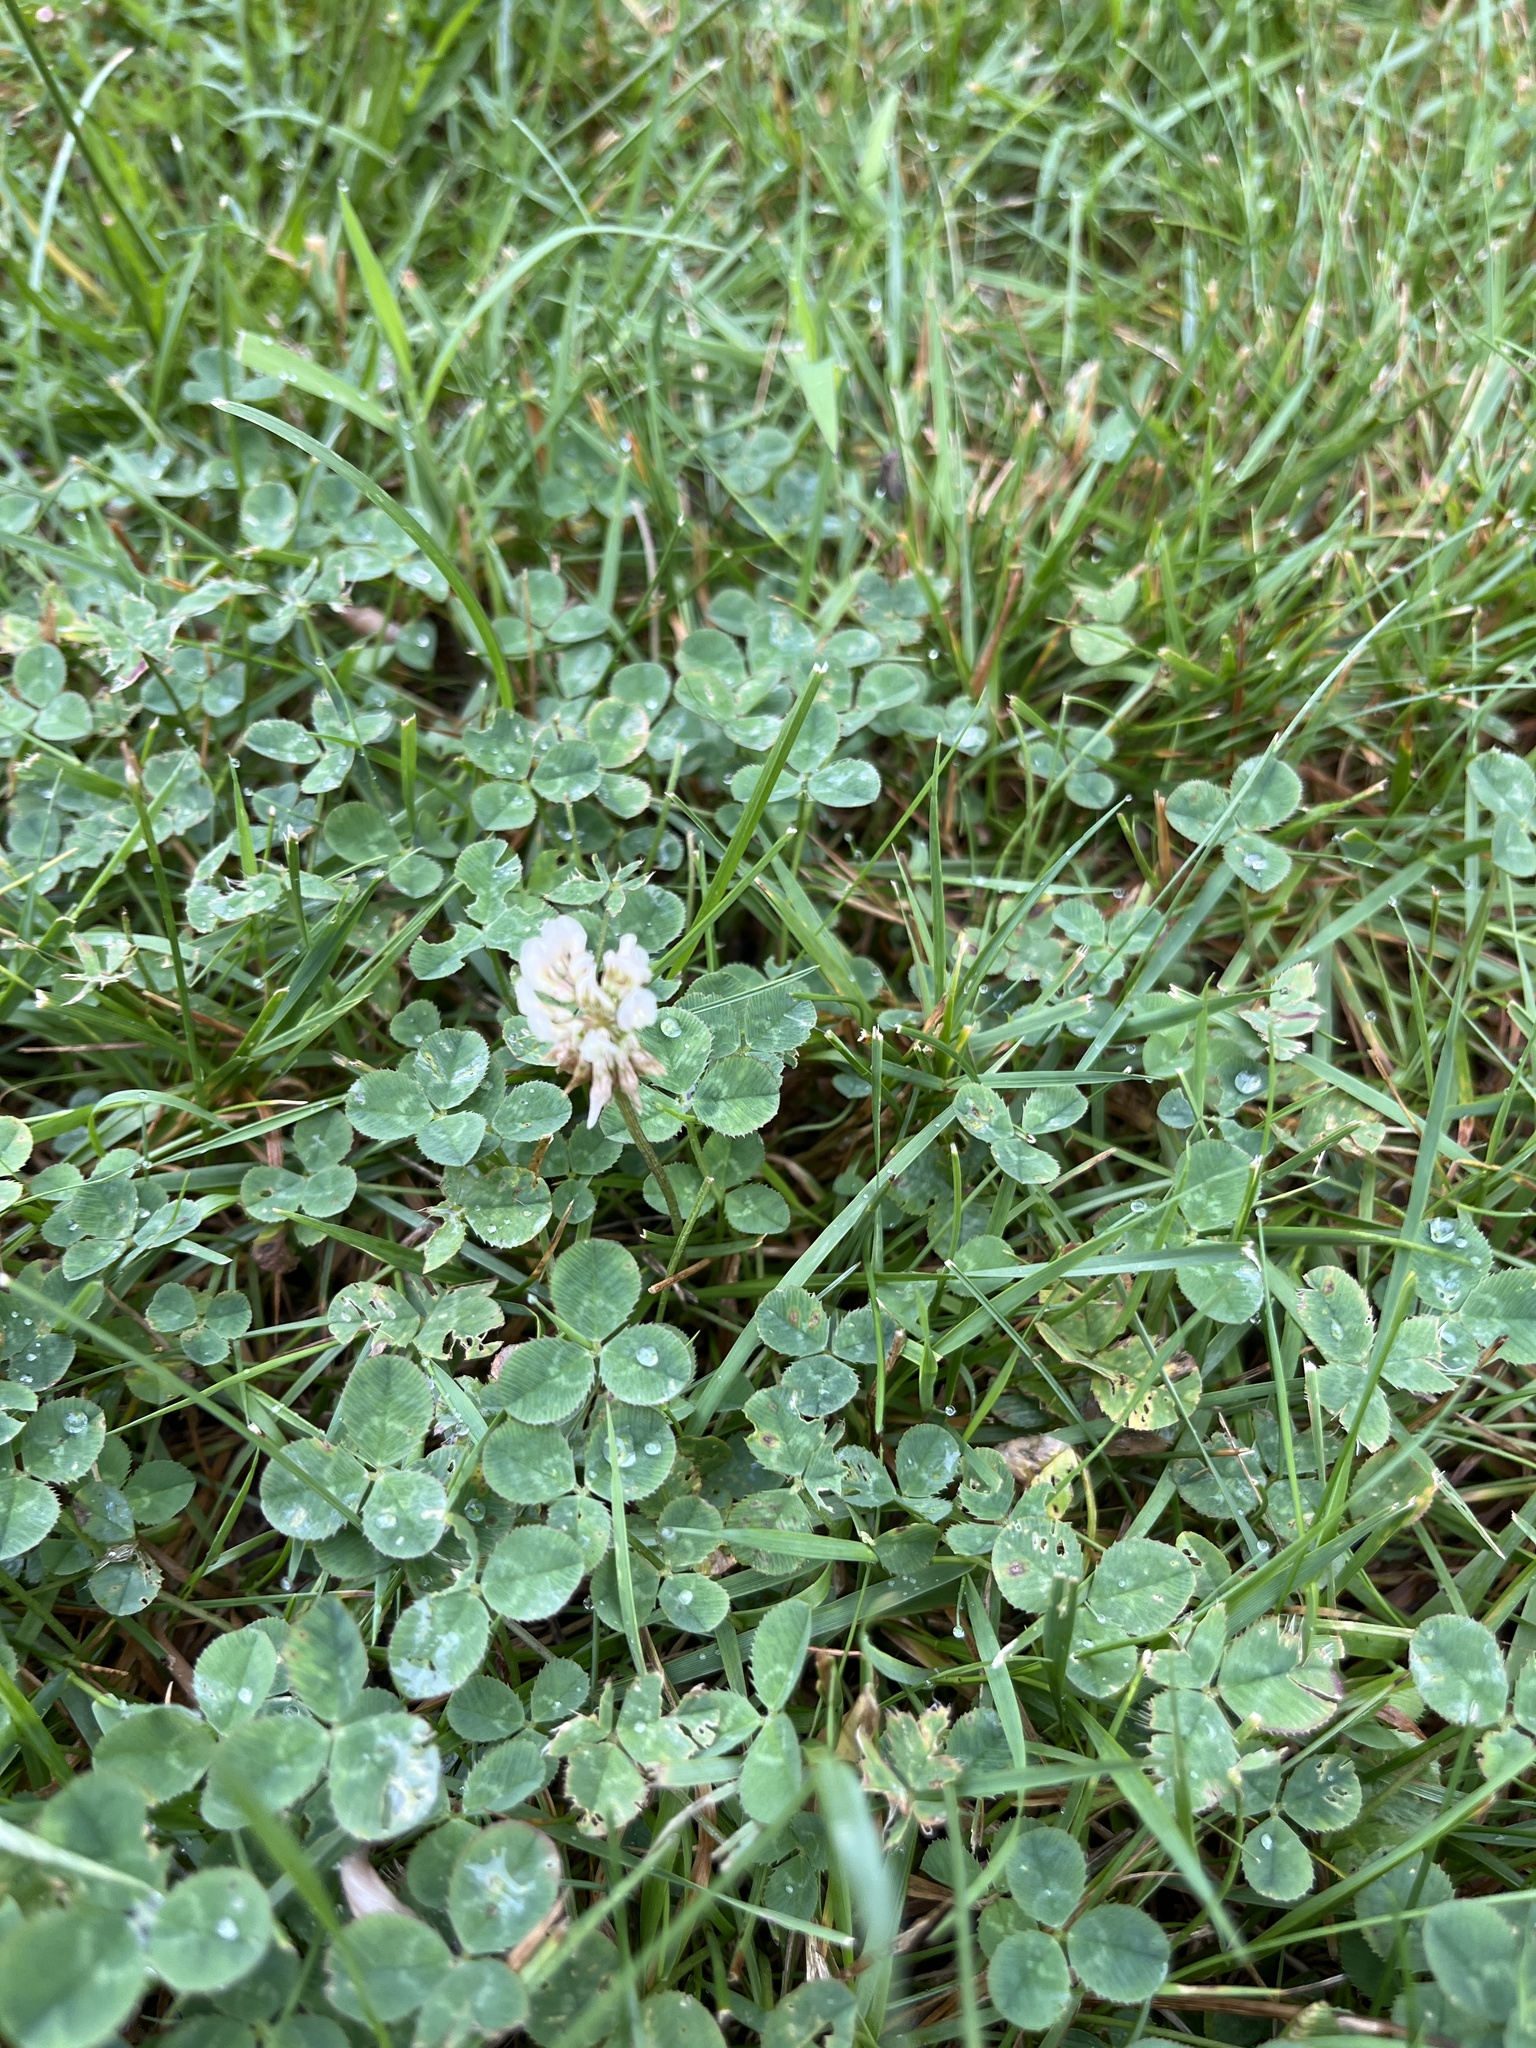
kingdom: Plantae
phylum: Tracheophyta
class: Magnoliopsida
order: Fabales
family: Fabaceae
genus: Trifolium
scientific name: Trifolium repens
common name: White clover
